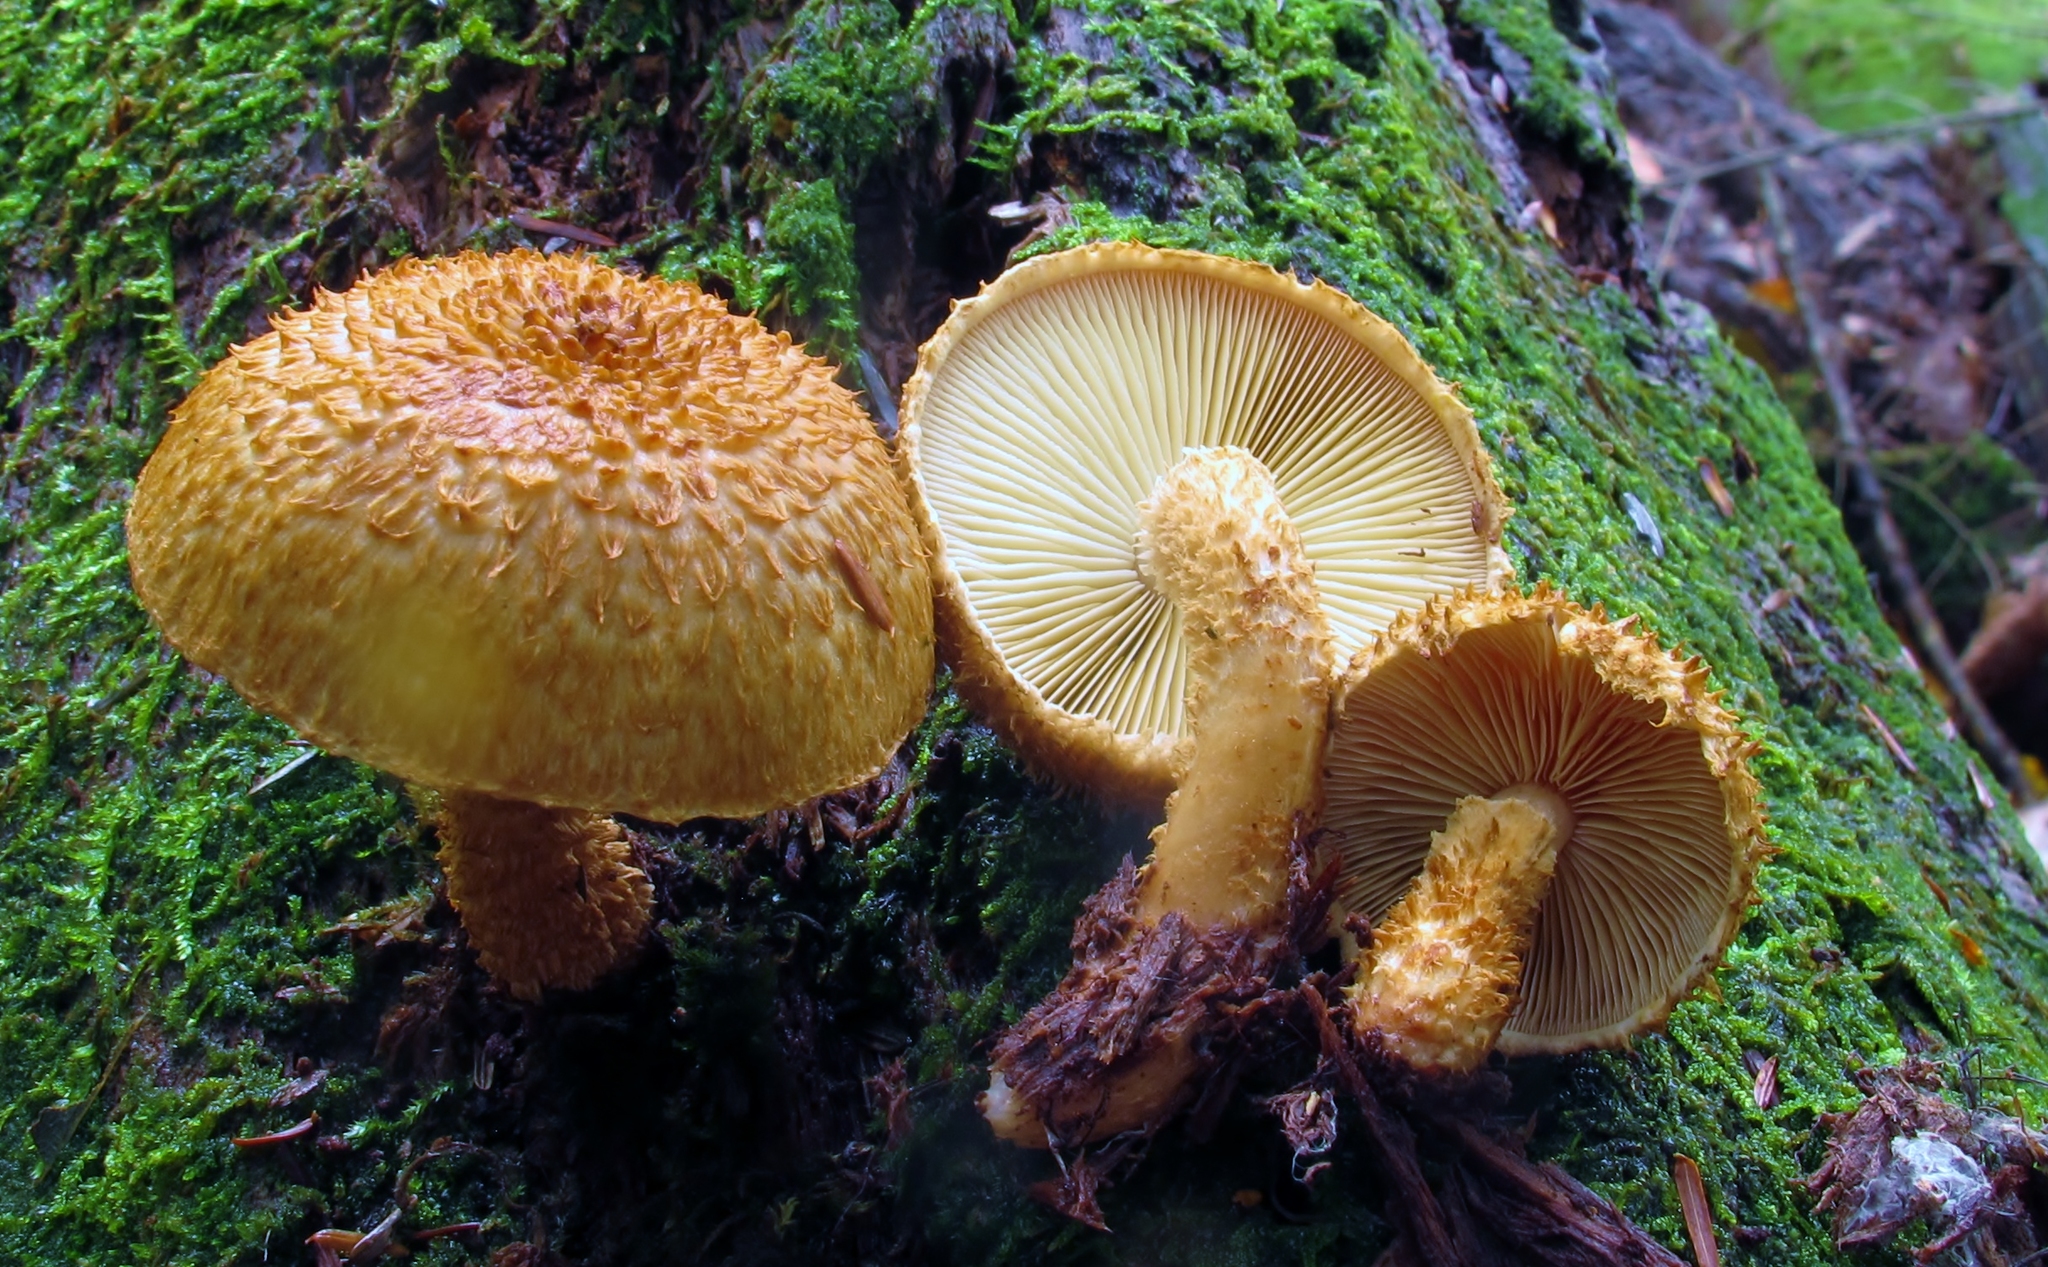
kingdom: Fungi
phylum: Basidiomycota
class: Agaricomycetes
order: Agaricales
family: Agaricaceae
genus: Leucopholiota
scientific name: Leucopholiota decorosa
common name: Decorated pholiota
